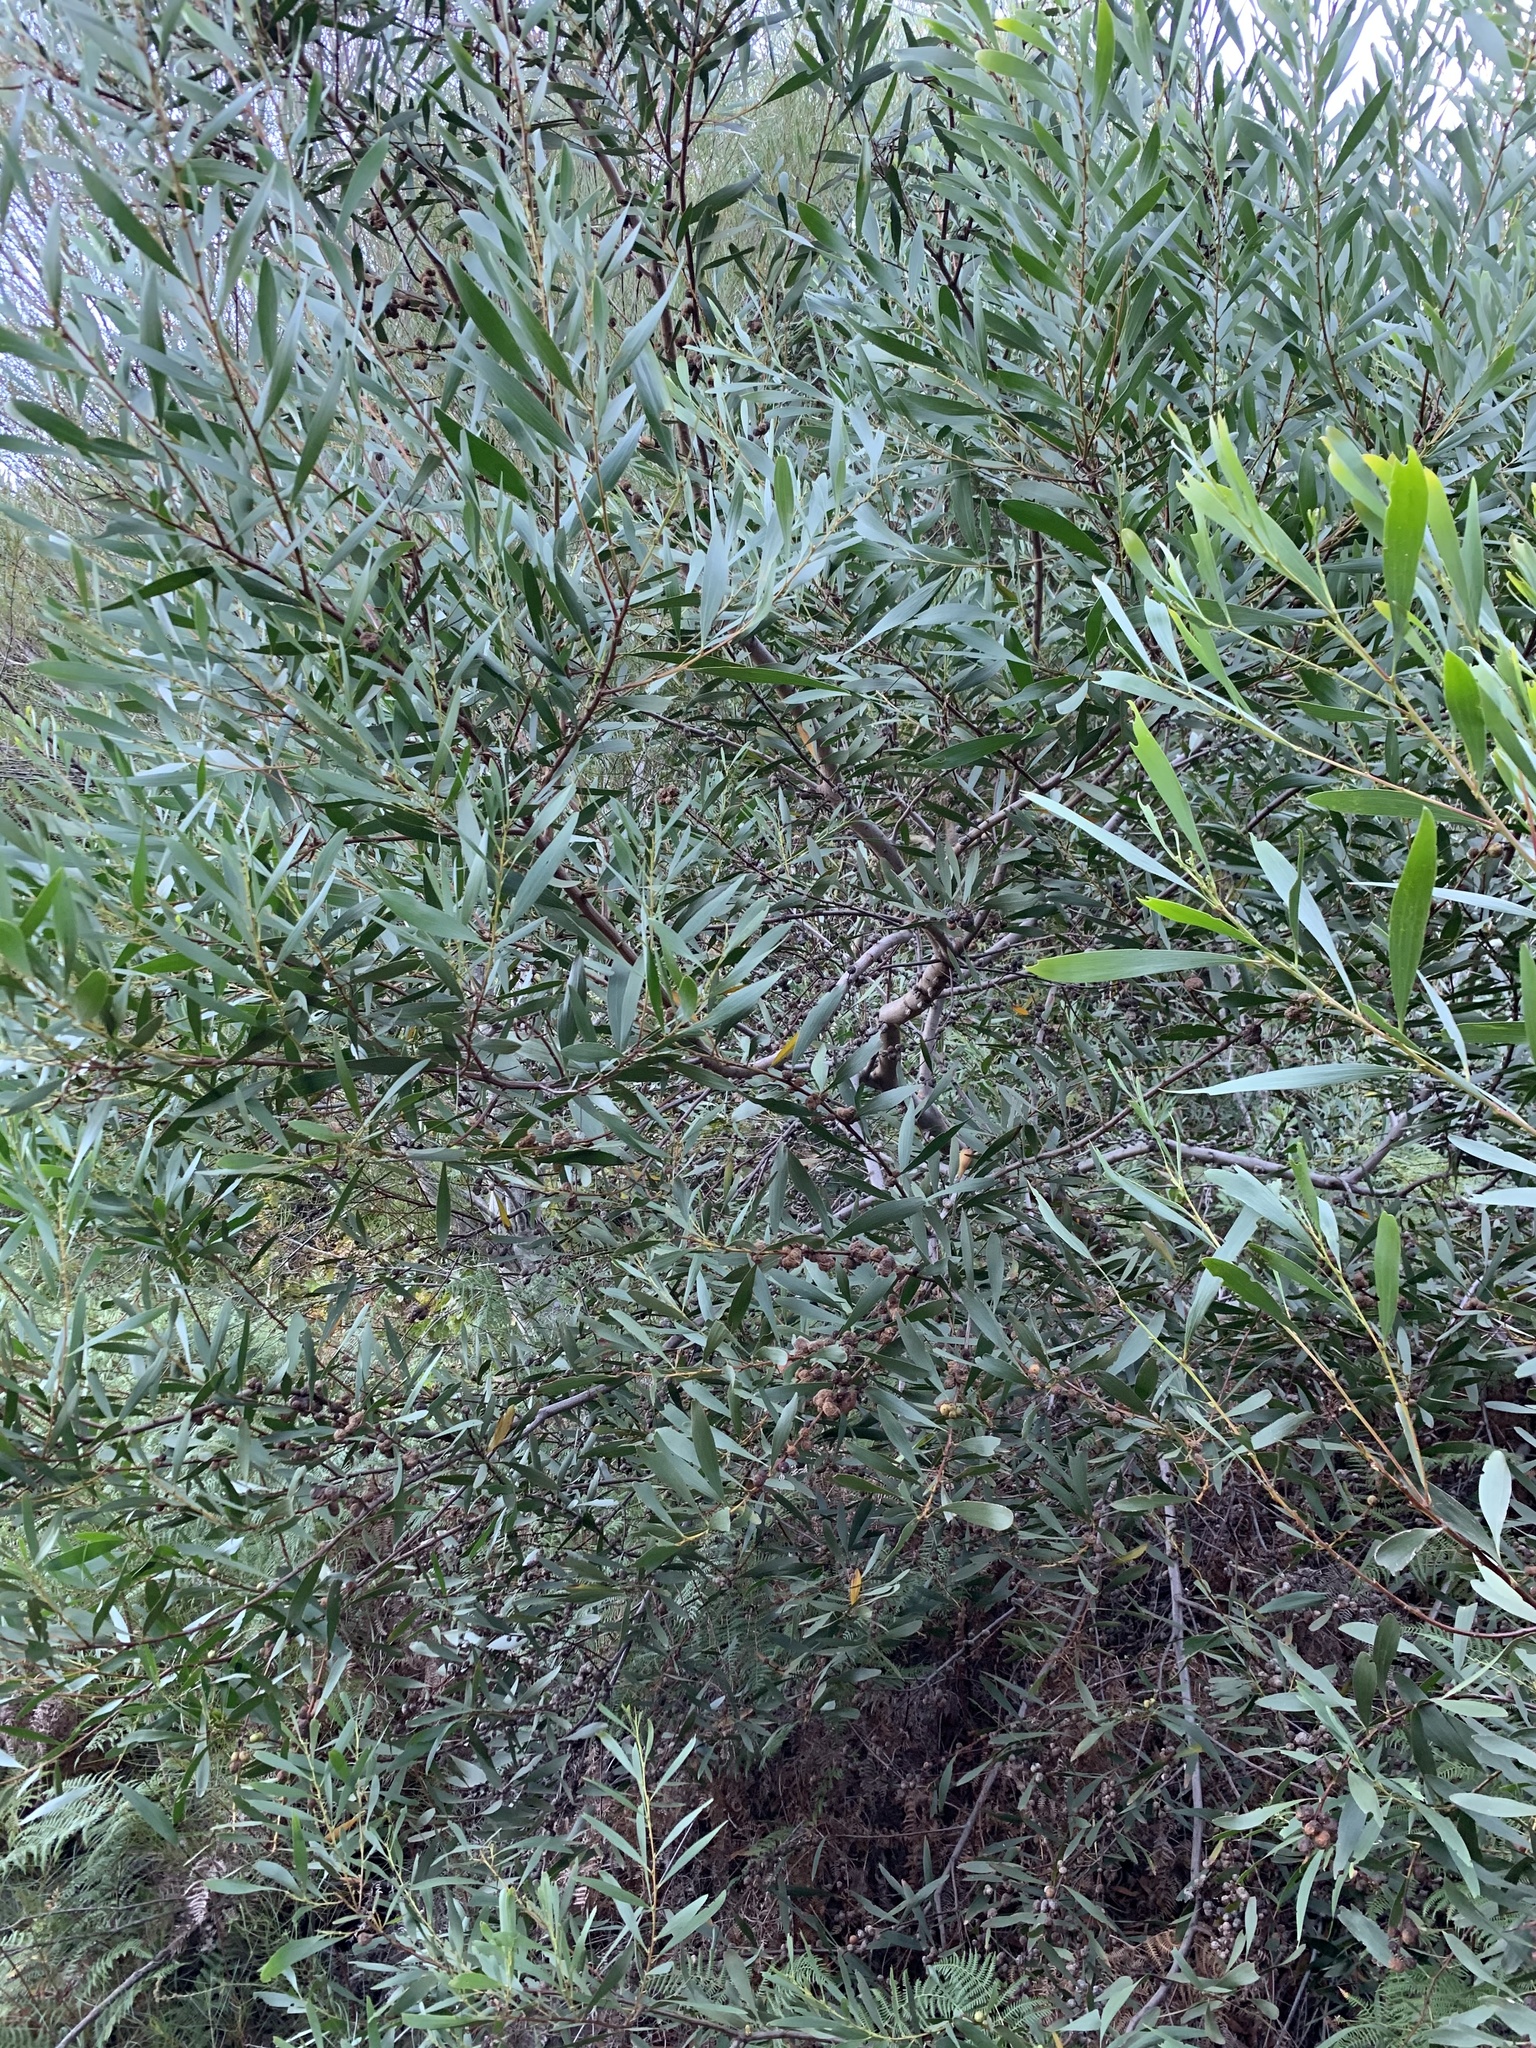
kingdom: Plantae
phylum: Tracheophyta
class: Magnoliopsida
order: Fabales
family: Fabaceae
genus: Acacia
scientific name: Acacia longifolia
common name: Sydney golden wattle
